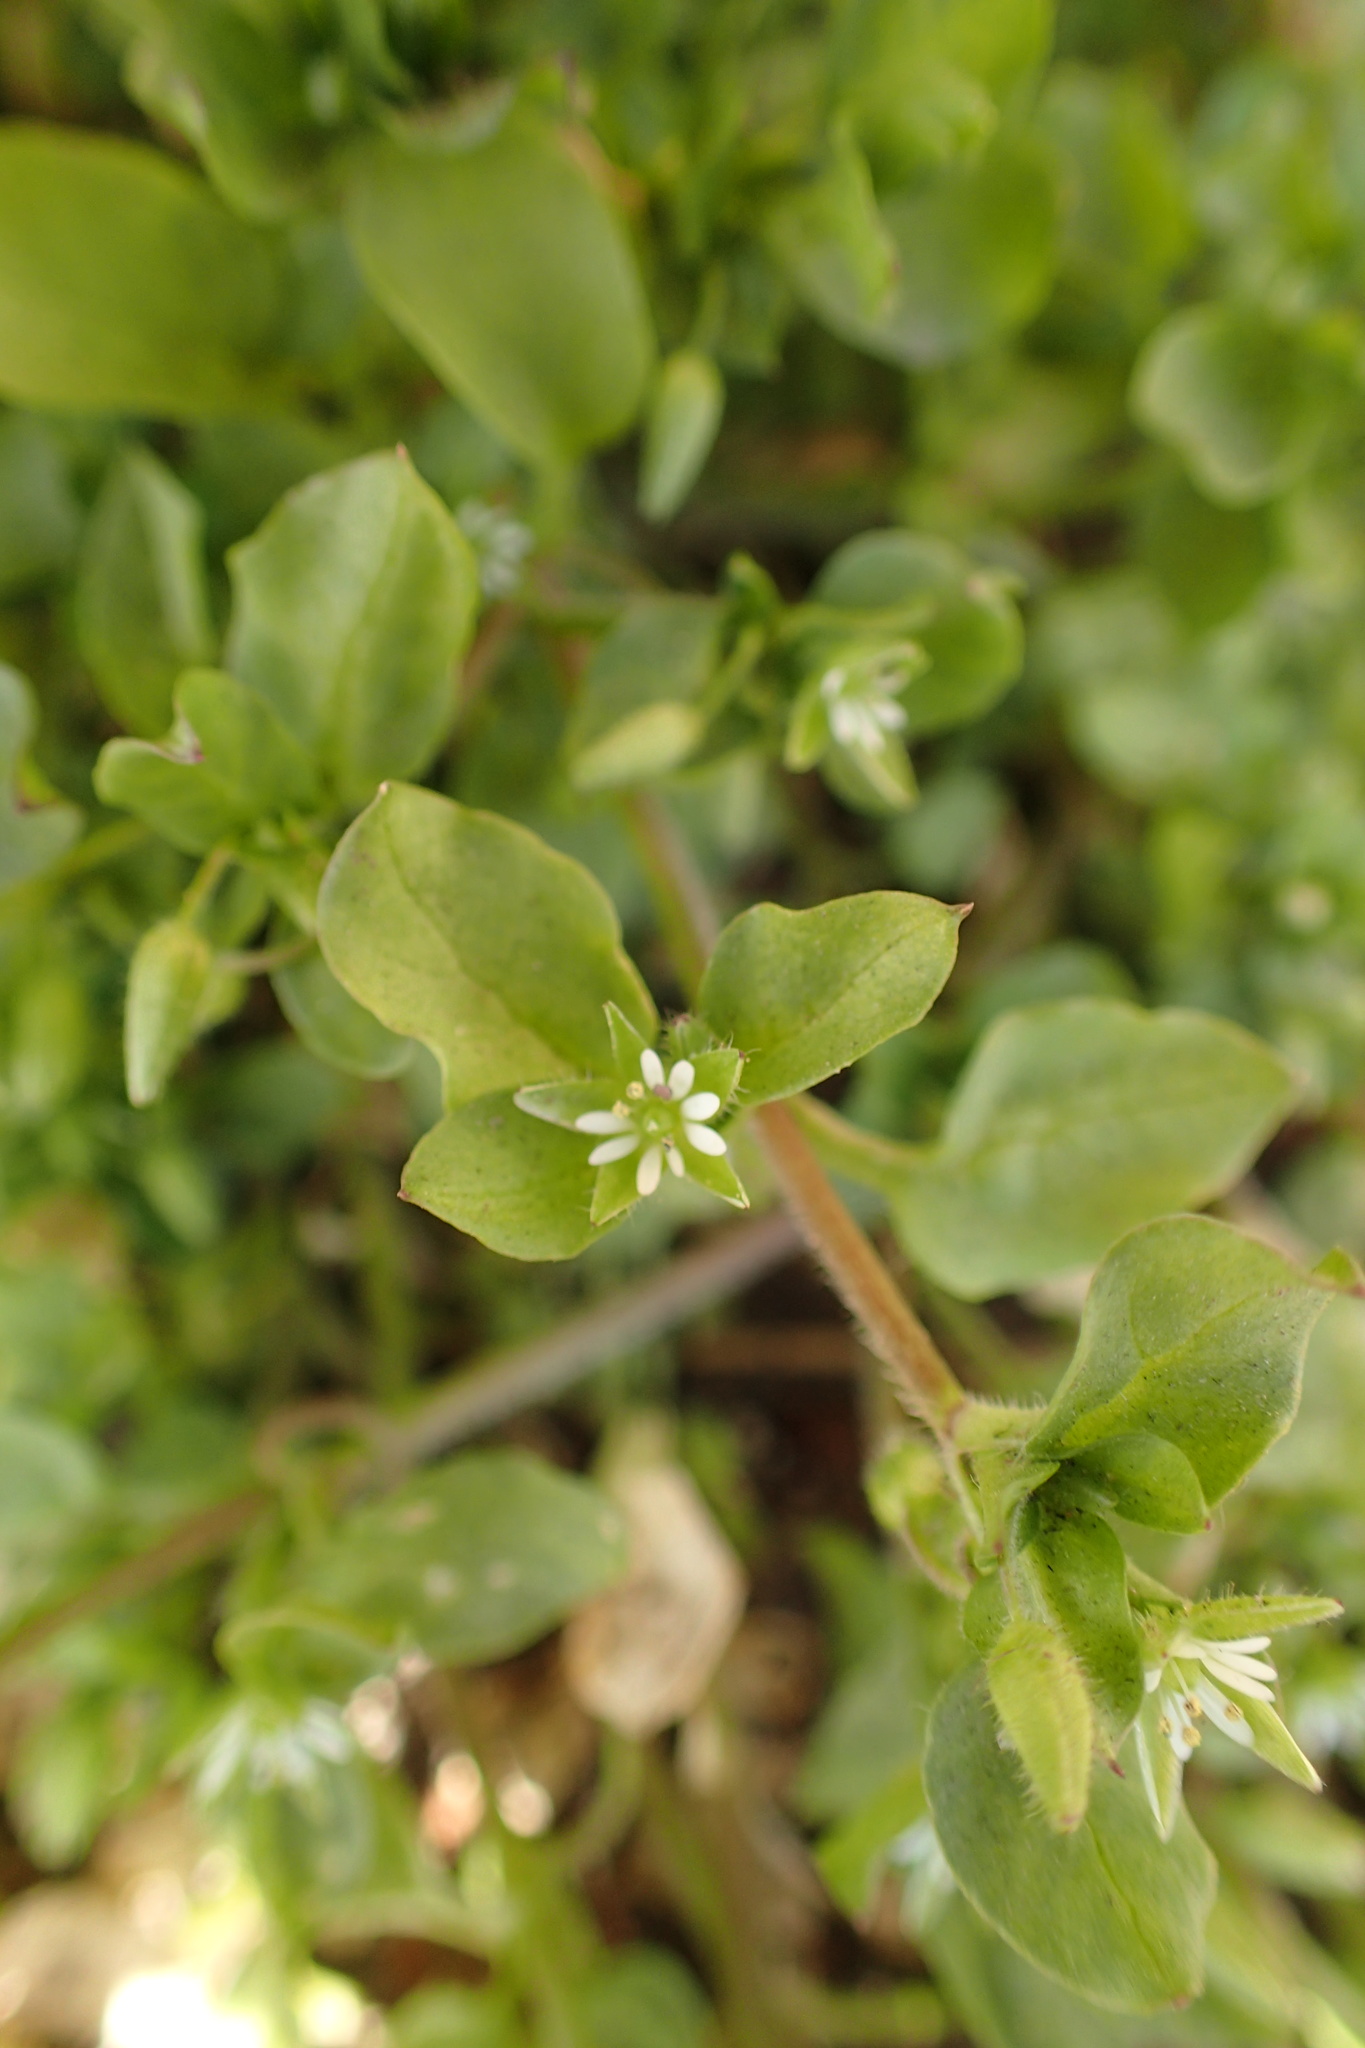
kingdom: Plantae
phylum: Tracheophyta
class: Magnoliopsida
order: Caryophyllales
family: Caryophyllaceae
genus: Stellaria
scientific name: Stellaria media
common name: Common chickweed
